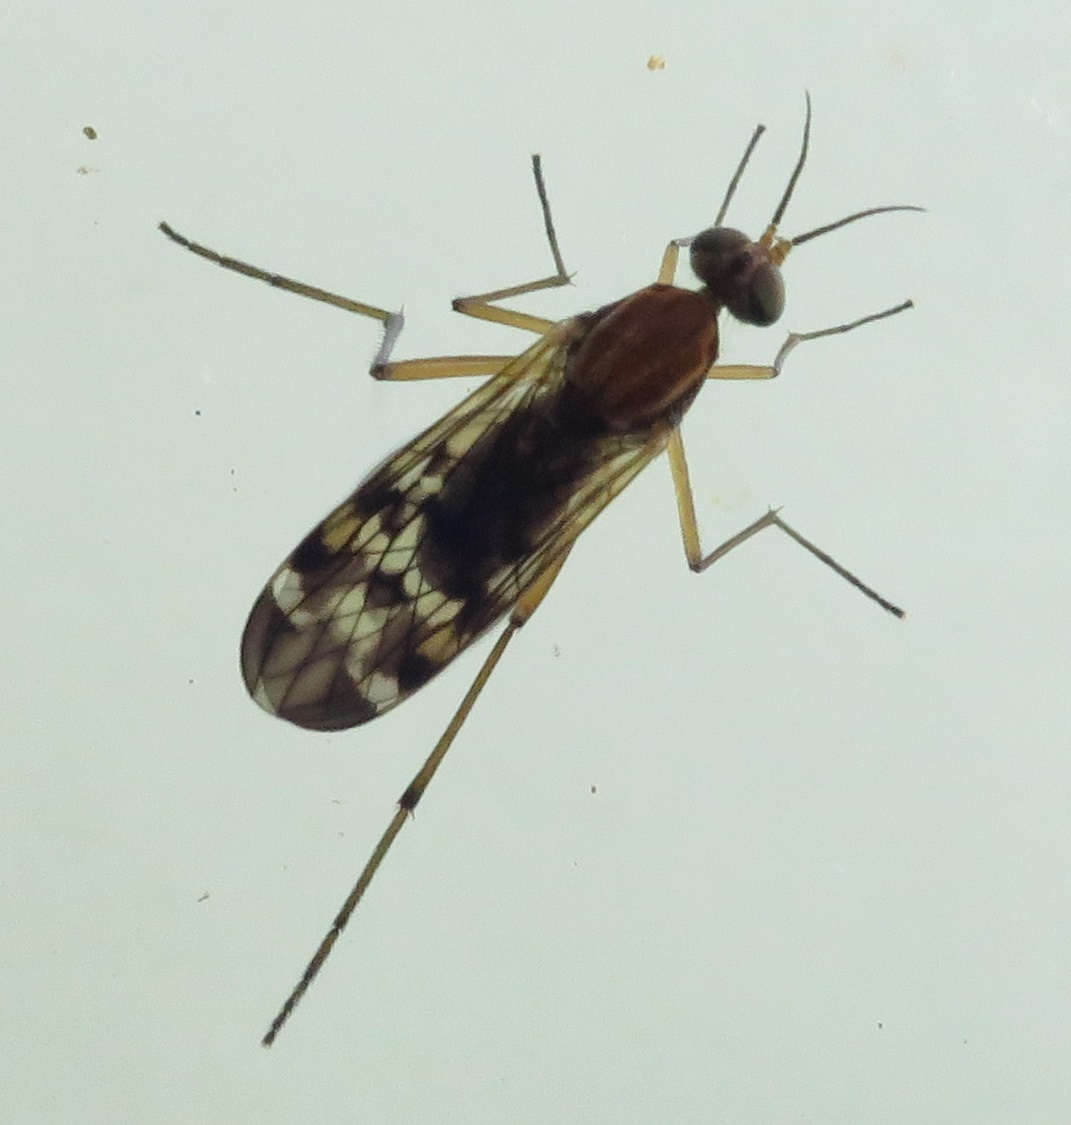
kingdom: Animalia
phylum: Arthropoda
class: Insecta
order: Diptera
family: Anisopodidae
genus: Sylvicola
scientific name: Sylvicola notatus
